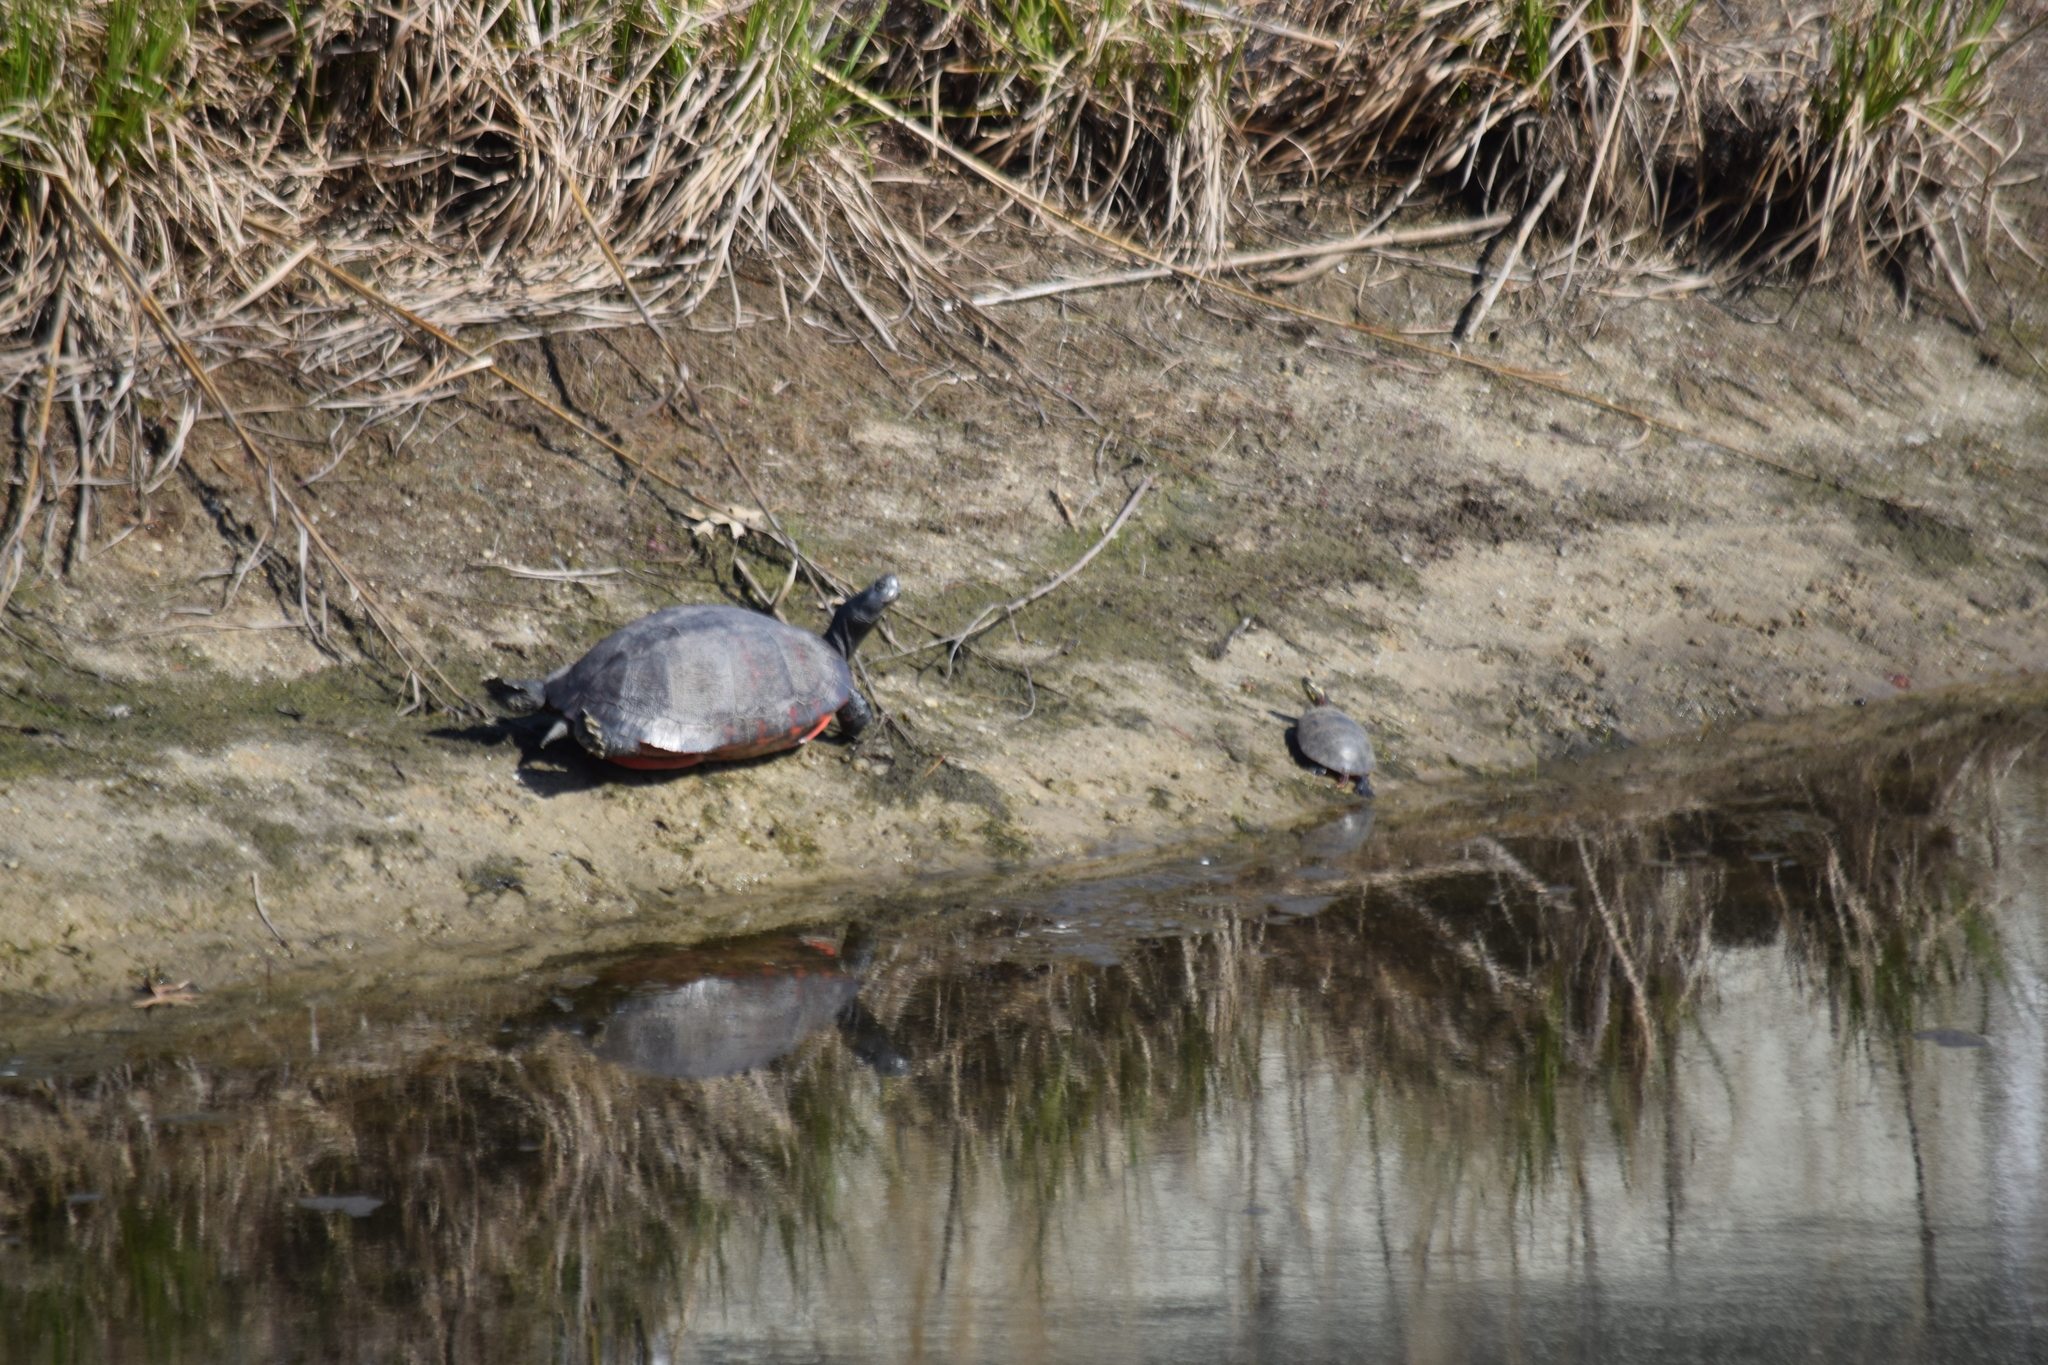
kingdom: Animalia
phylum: Chordata
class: Testudines
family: Emydidae
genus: Pseudemys
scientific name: Pseudemys rubriventris
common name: American red-bellied turtle
